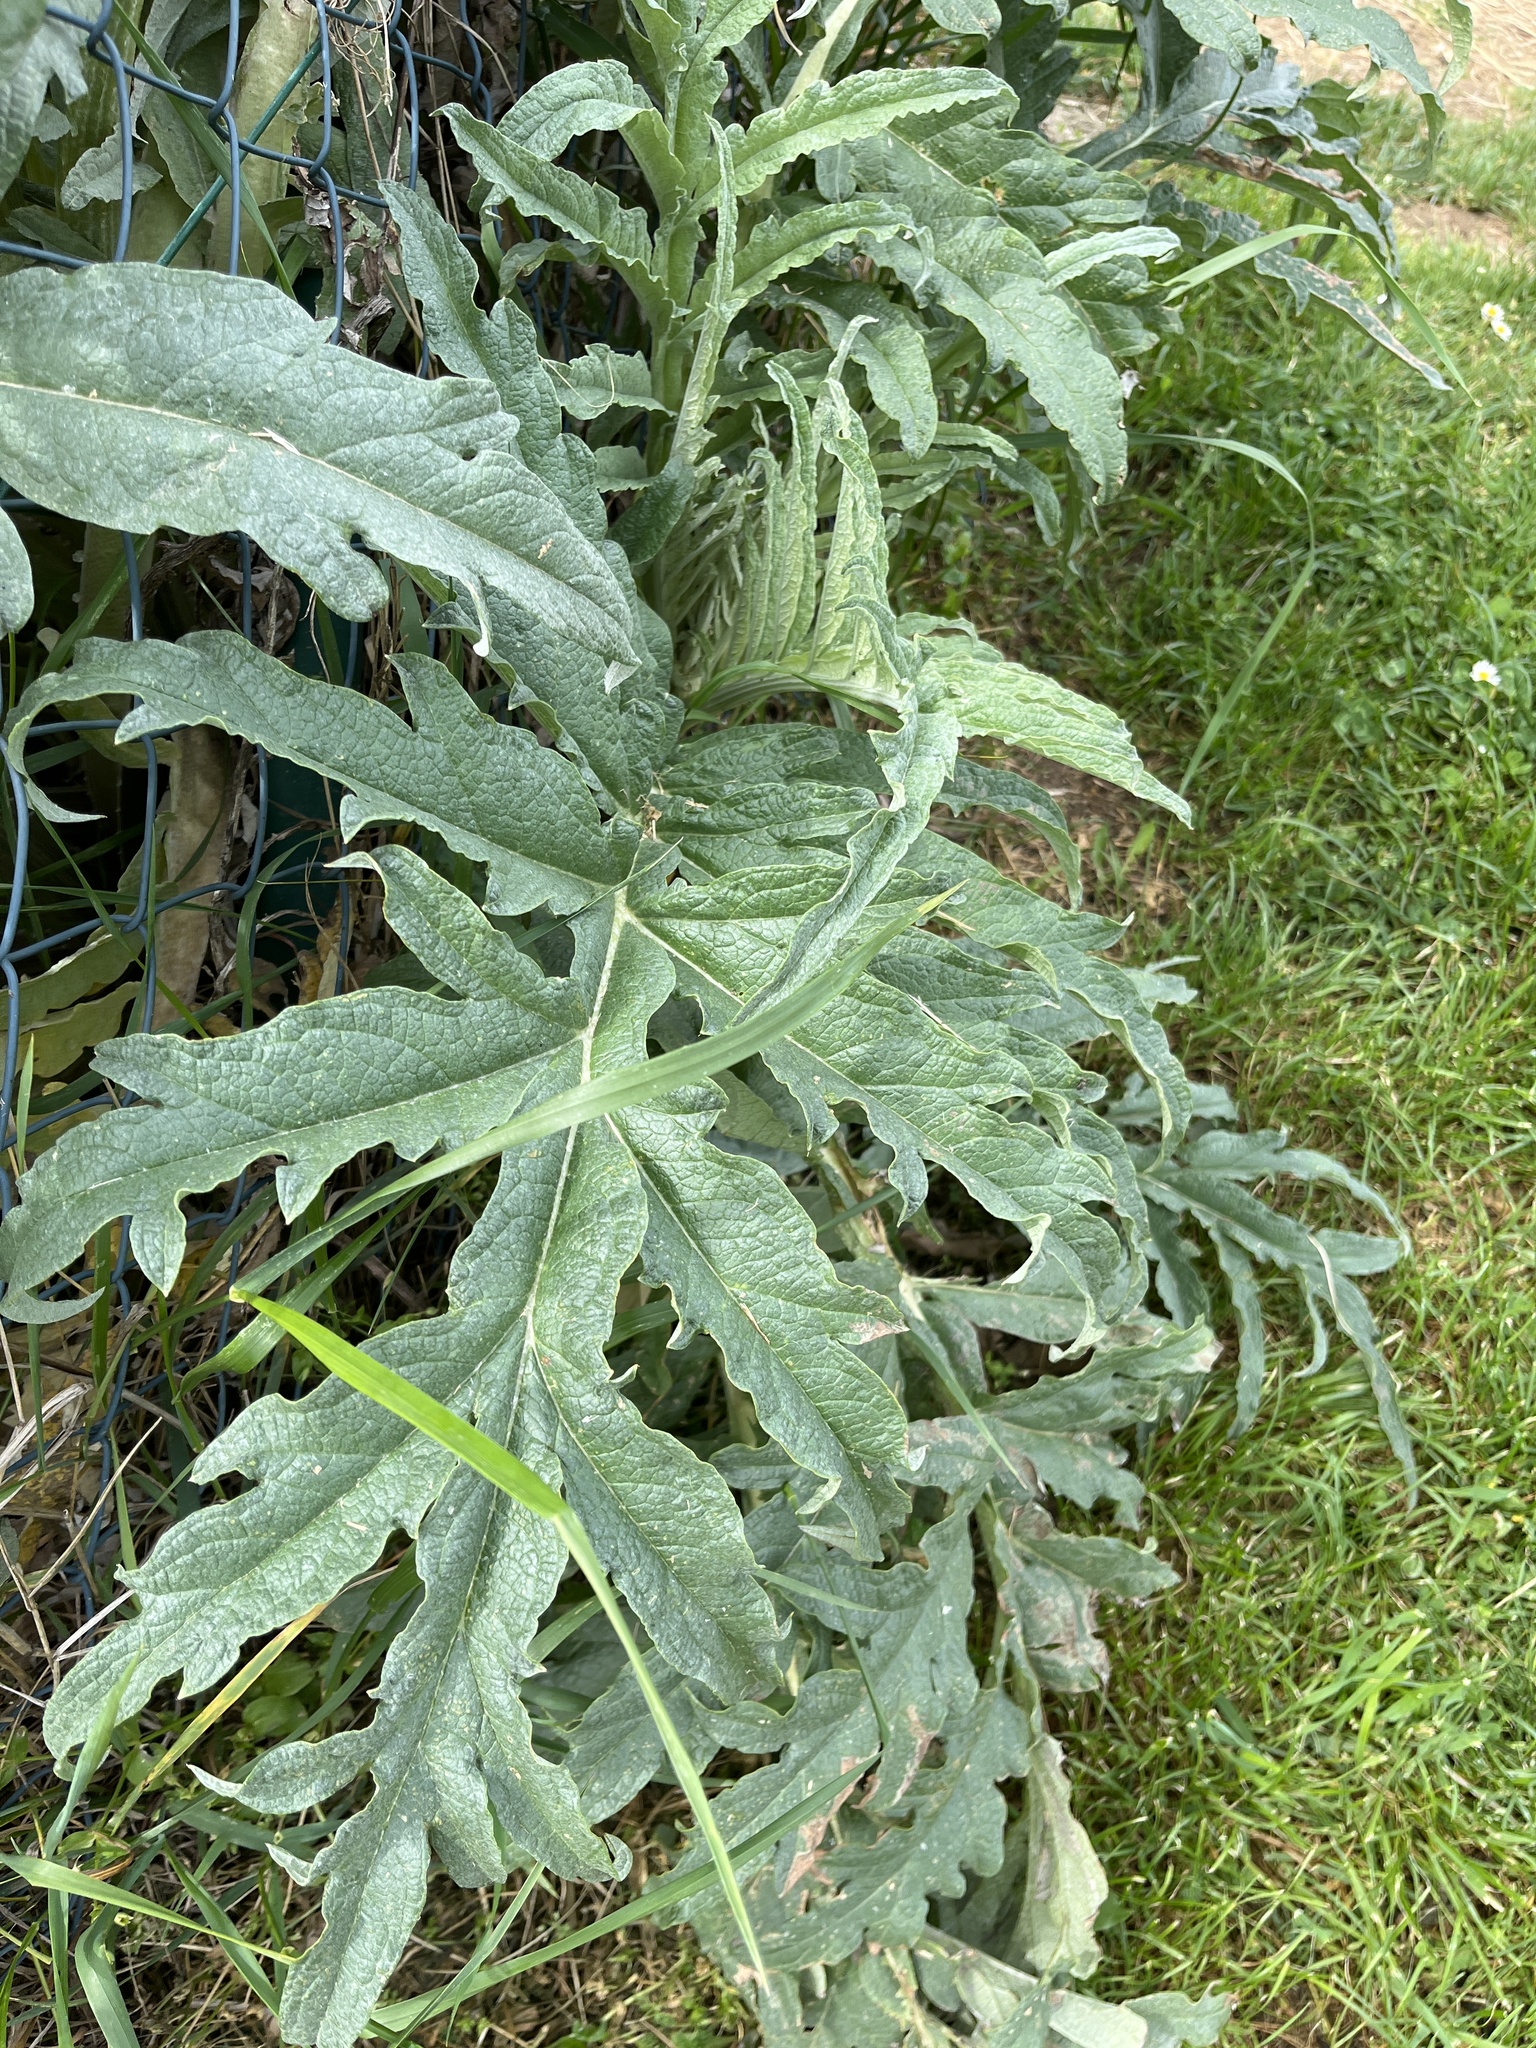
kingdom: Plantae
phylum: Tracheophyta
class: Magnoliopsida
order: Asterales
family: Asteraceae
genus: Cynara
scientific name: Cynara cardunculus
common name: Globe artichoke
